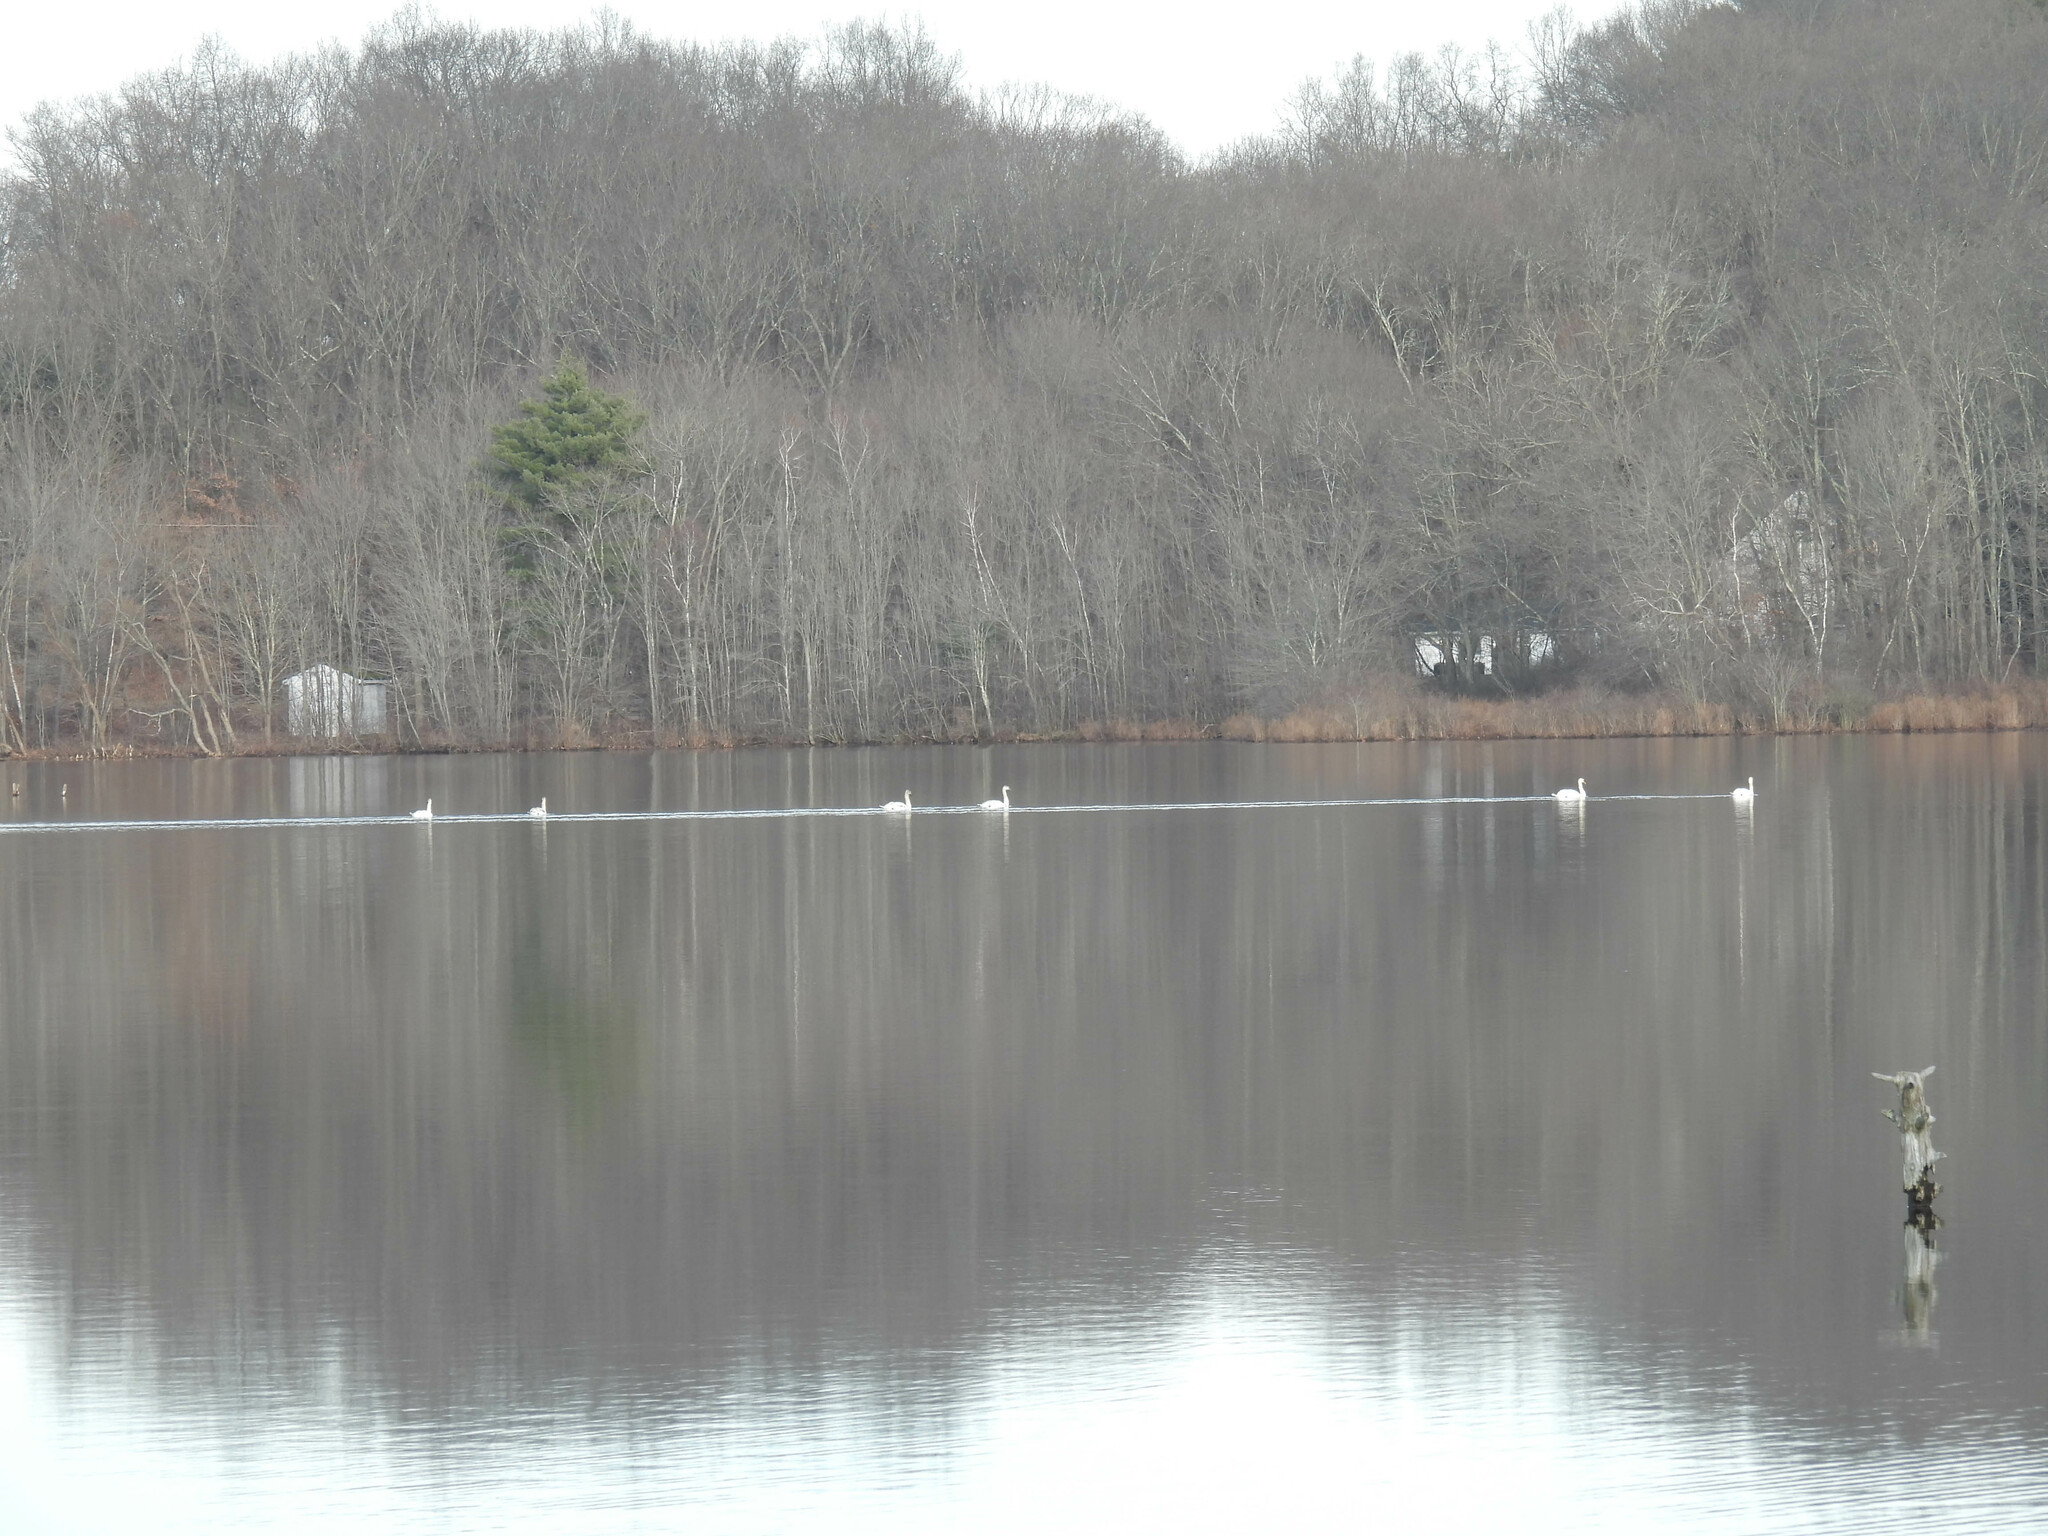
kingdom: Animalia
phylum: Chordata
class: Aves
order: Anseriformes
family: Anatidae
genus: Cygnus
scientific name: Cygnus olor
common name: Mute swan
